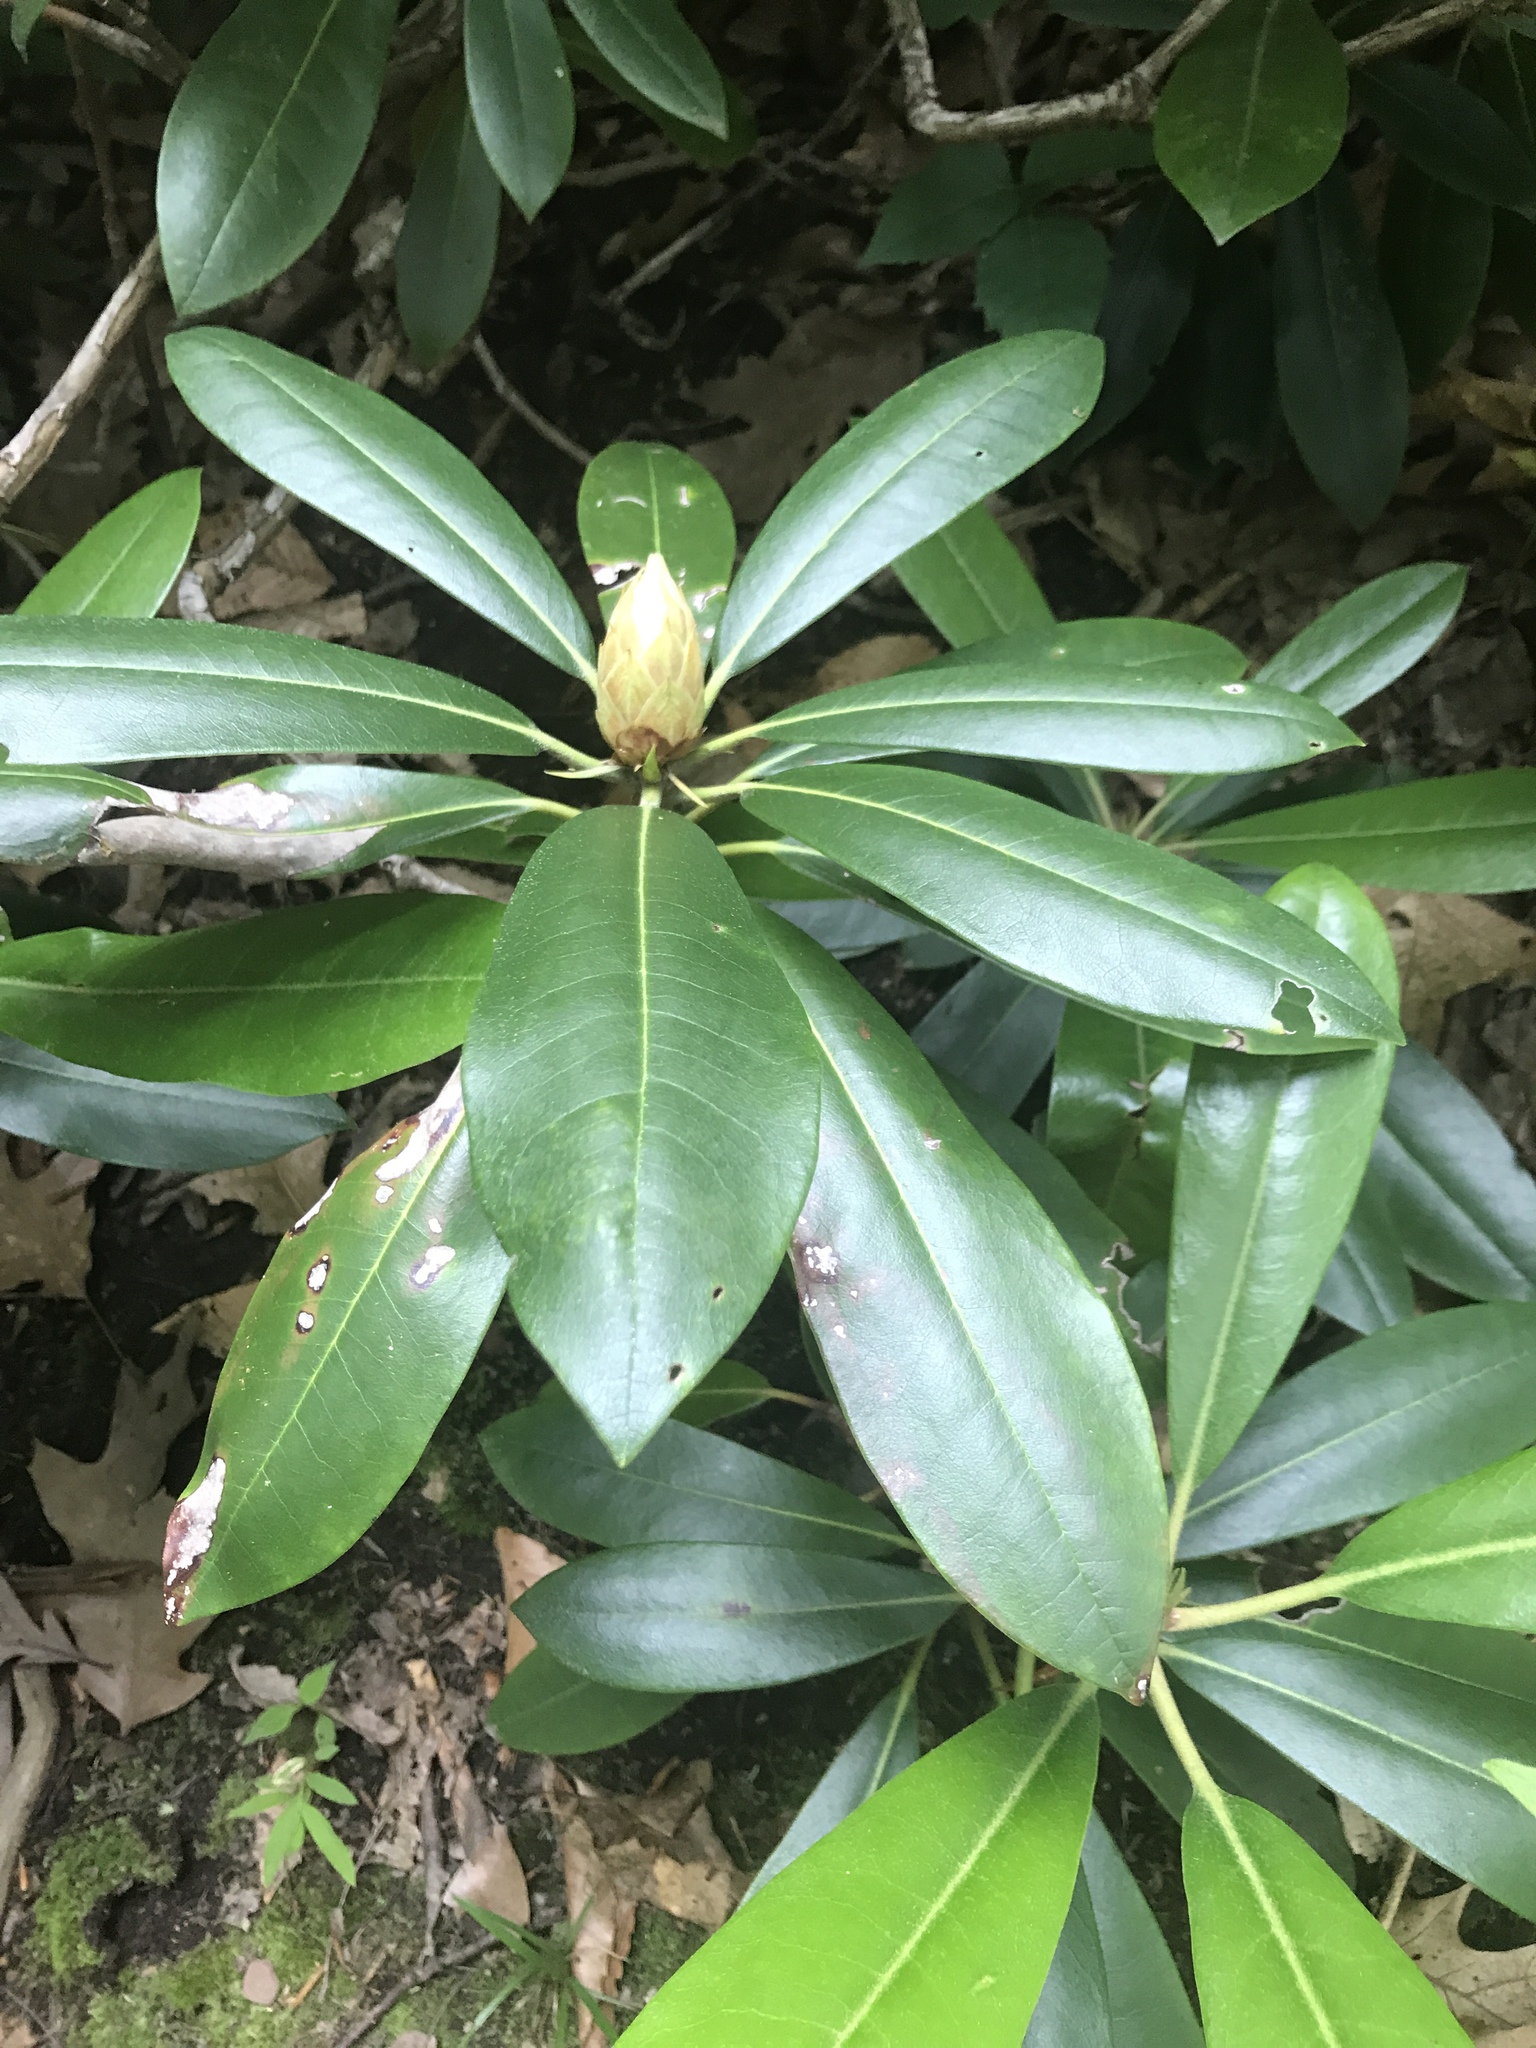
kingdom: Plantae
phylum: Tracheophyta
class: Magnoliopsida
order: Ericales
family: Ericaceae
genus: Rhododendron
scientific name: Rhododendron maximum
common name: Great rhododendron
